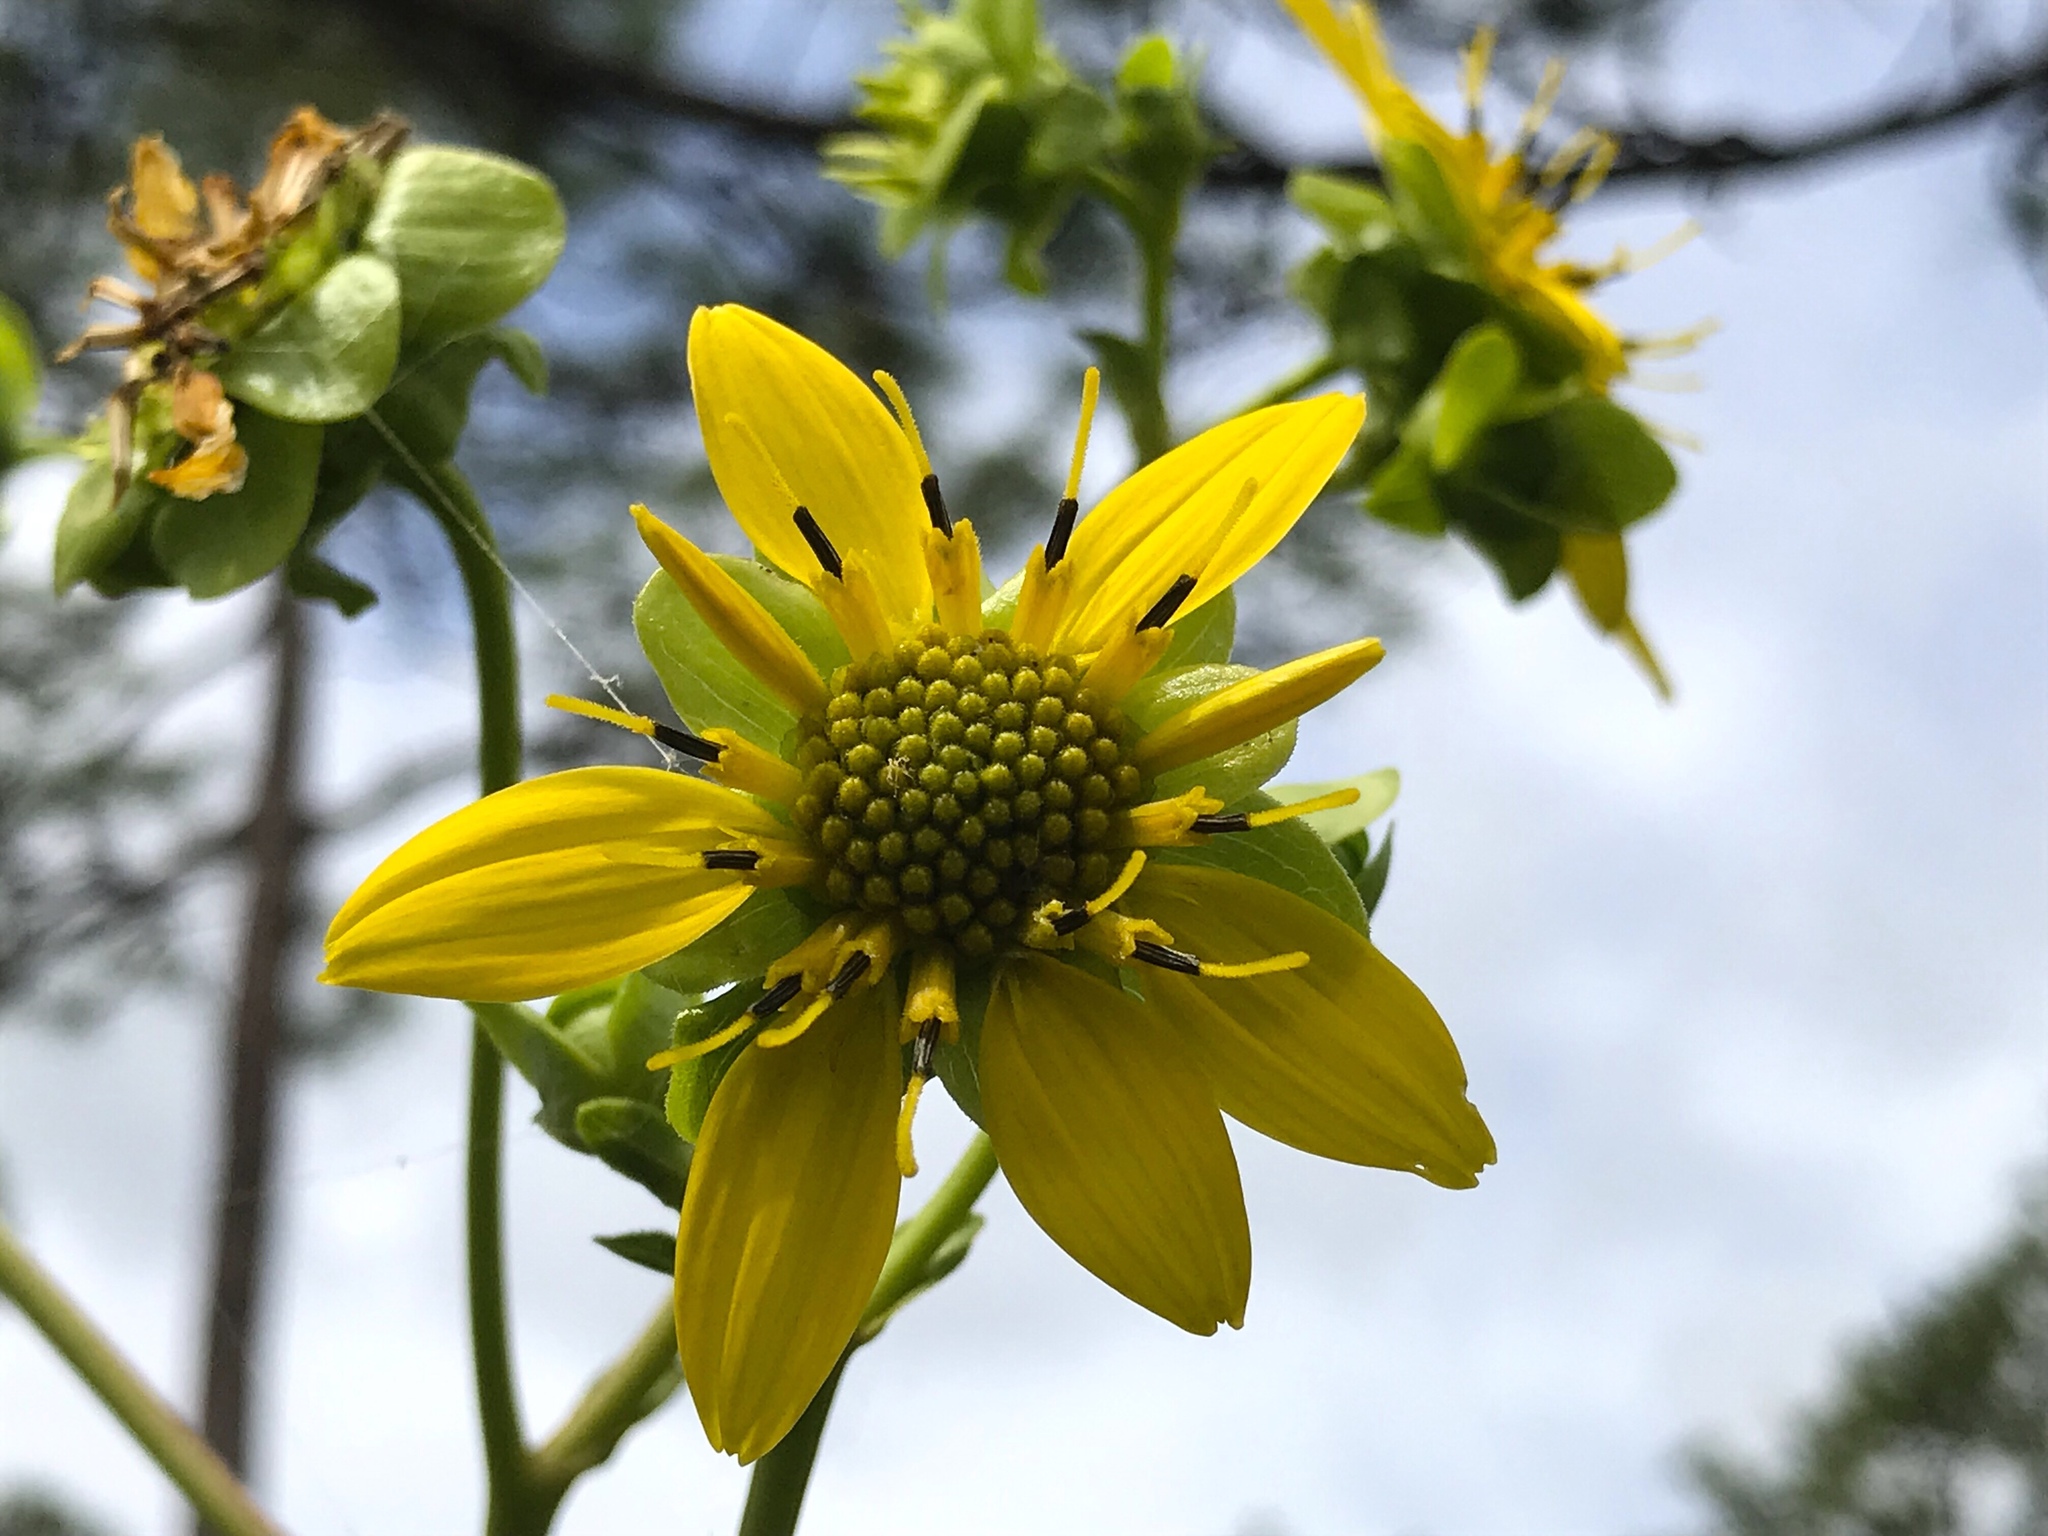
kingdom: Plantae
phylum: Tracheophyta
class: Magnoliopsida
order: Asterales
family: Asteraceae
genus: Silphium
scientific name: Silphium compositum
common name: Lesser basal-leaf rosinweed
